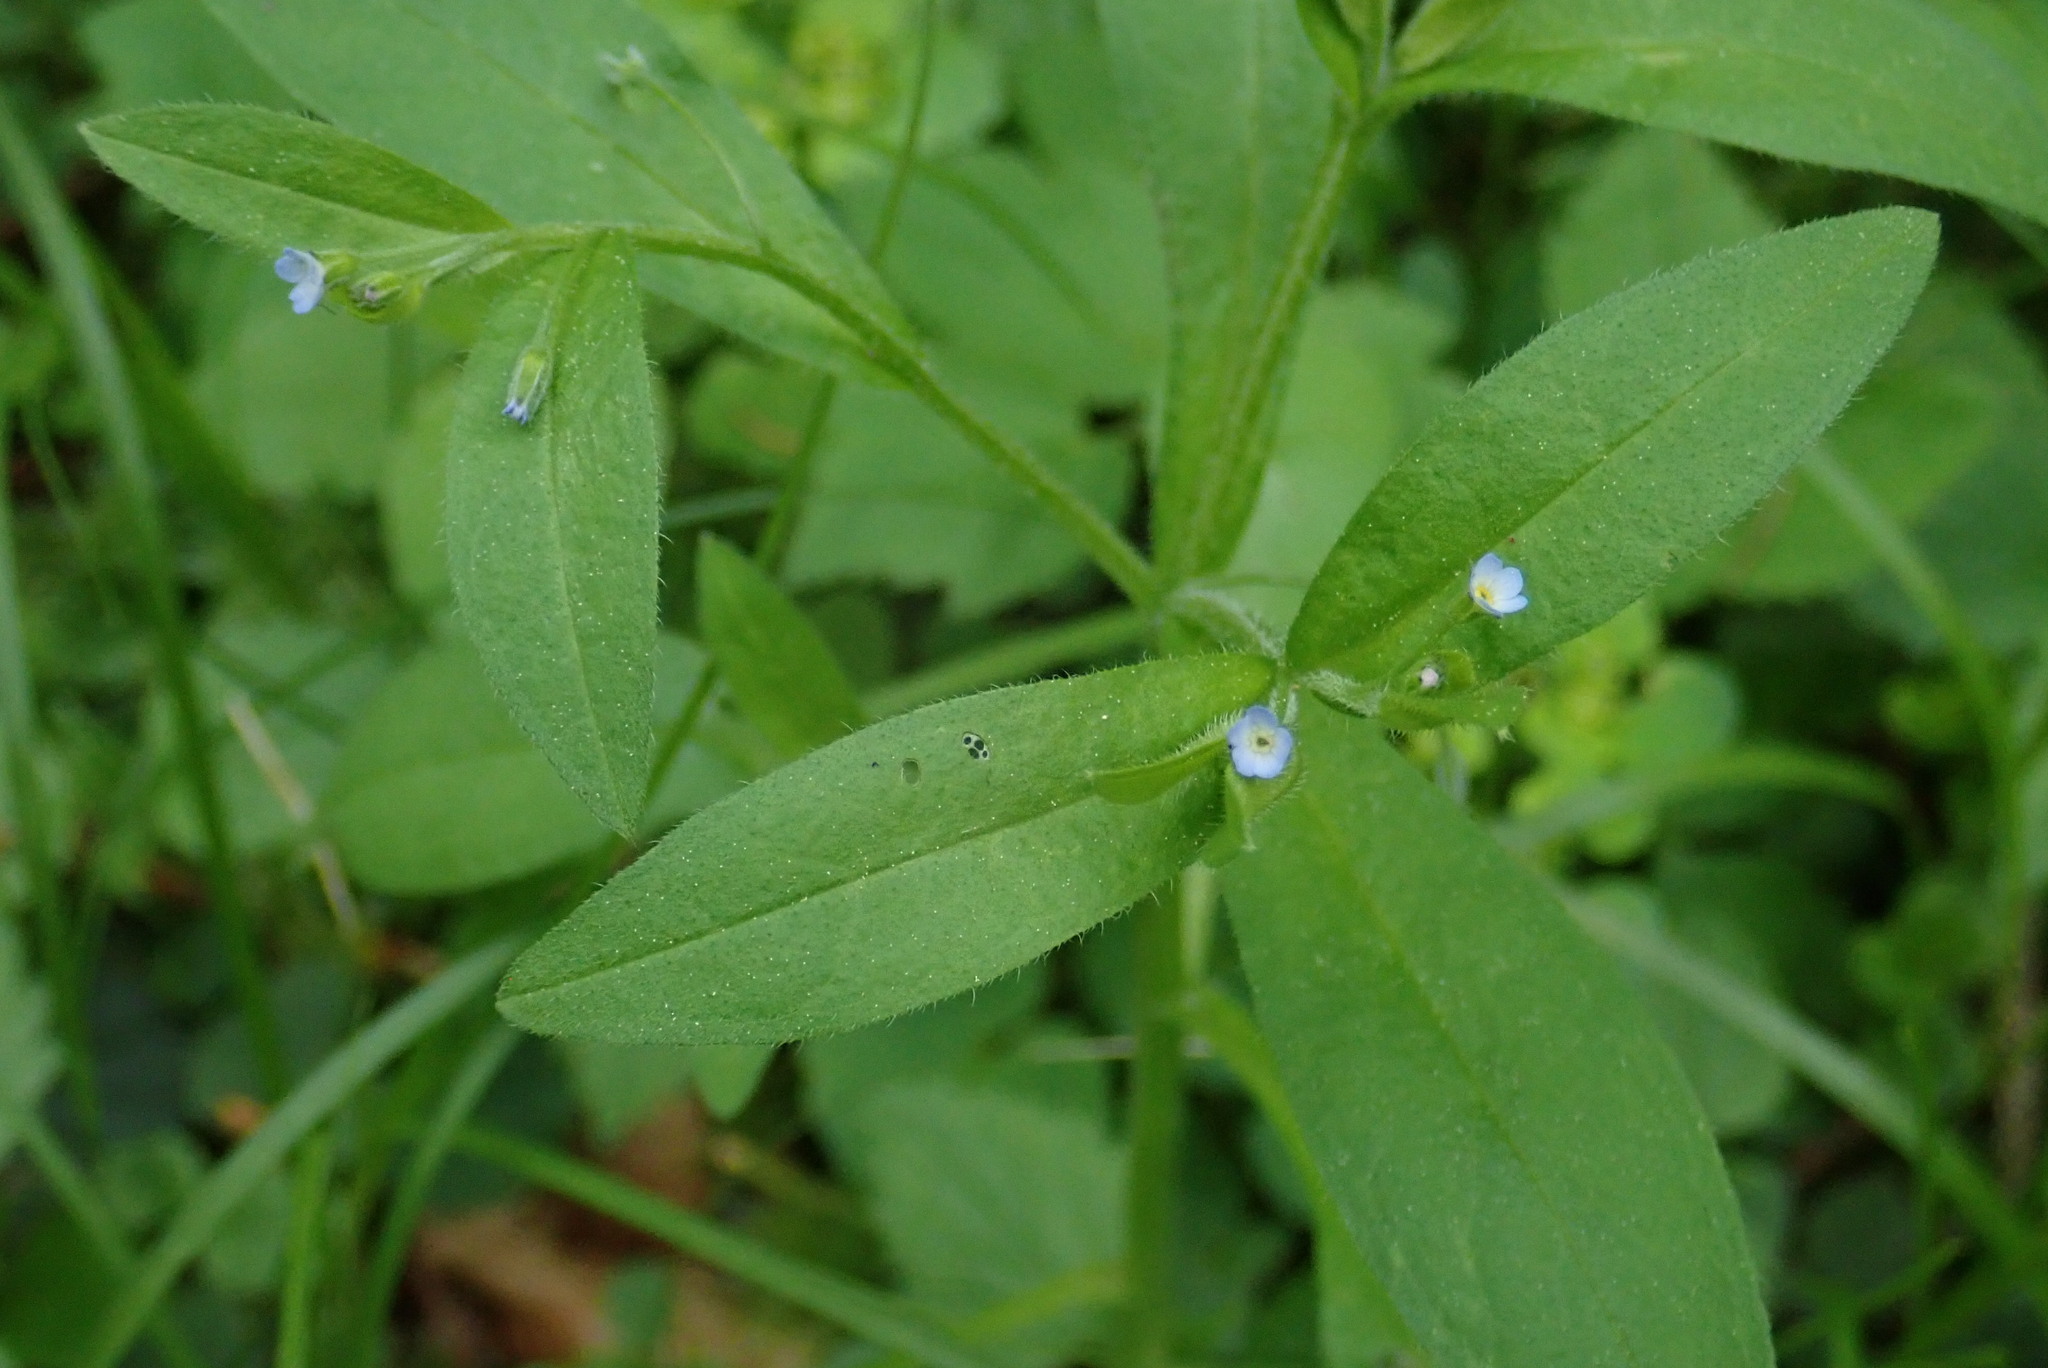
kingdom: Plantae
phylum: Tracheophyta
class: Magnoliopsida
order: Boraginales
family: Boraginaceae
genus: Myosotis
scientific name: Myosotis sparsiflora
